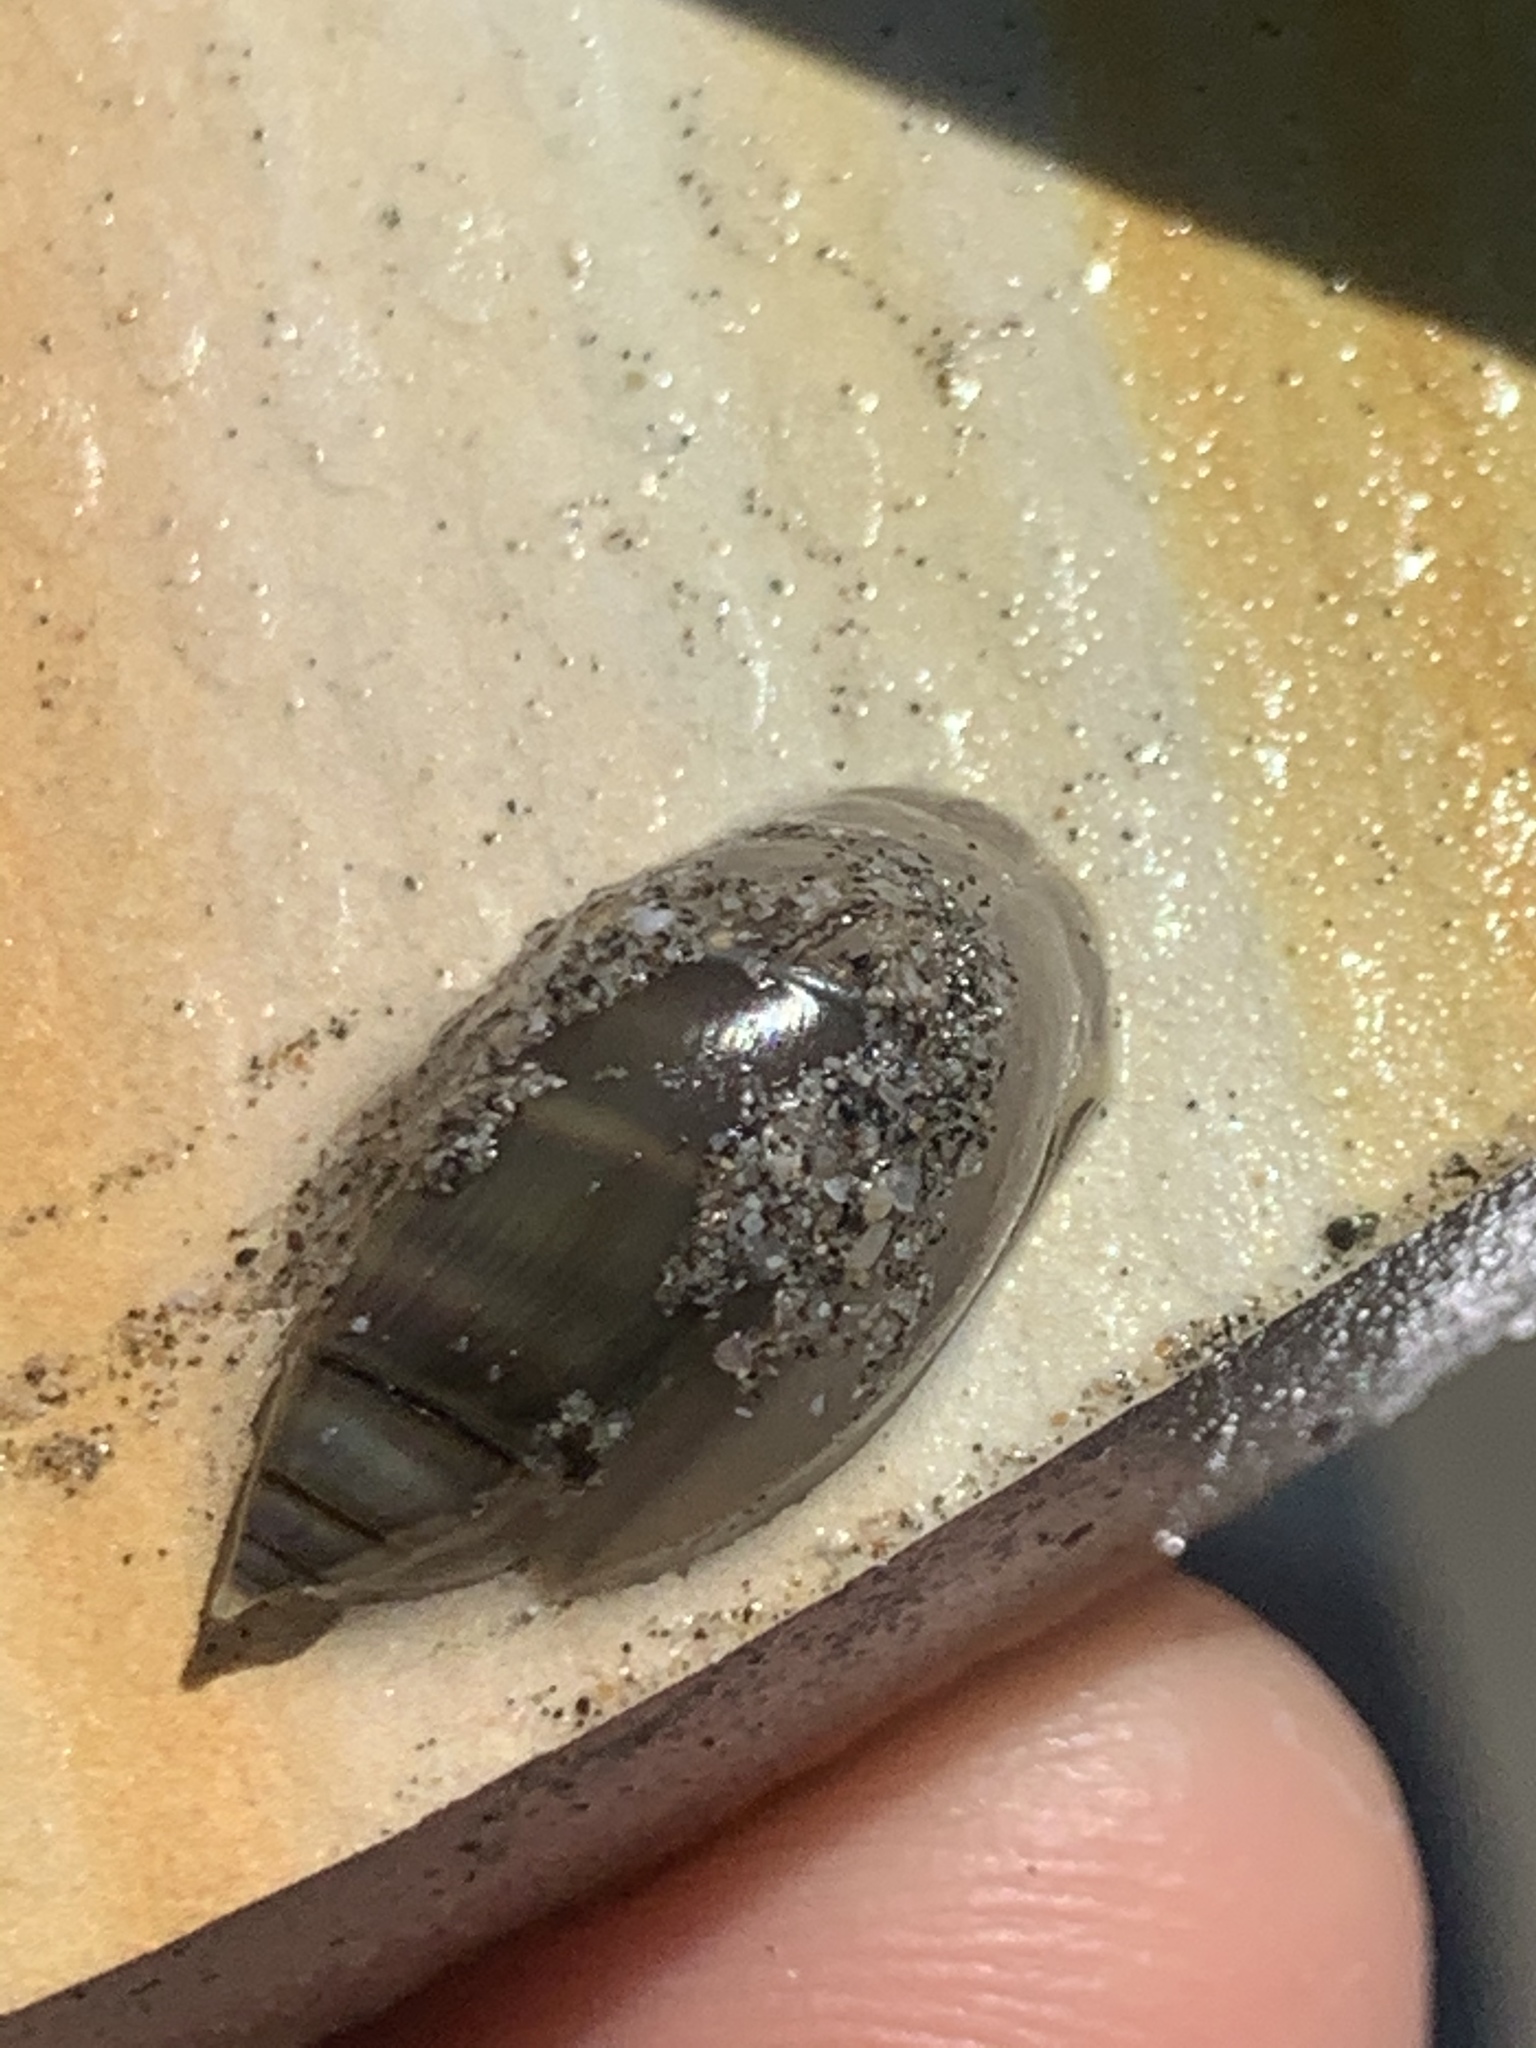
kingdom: Animalia
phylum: Mollusca
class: Gastropoda
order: Neogastropoda
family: Olividae
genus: Pachyoliva
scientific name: Pachyoliva semistriata
